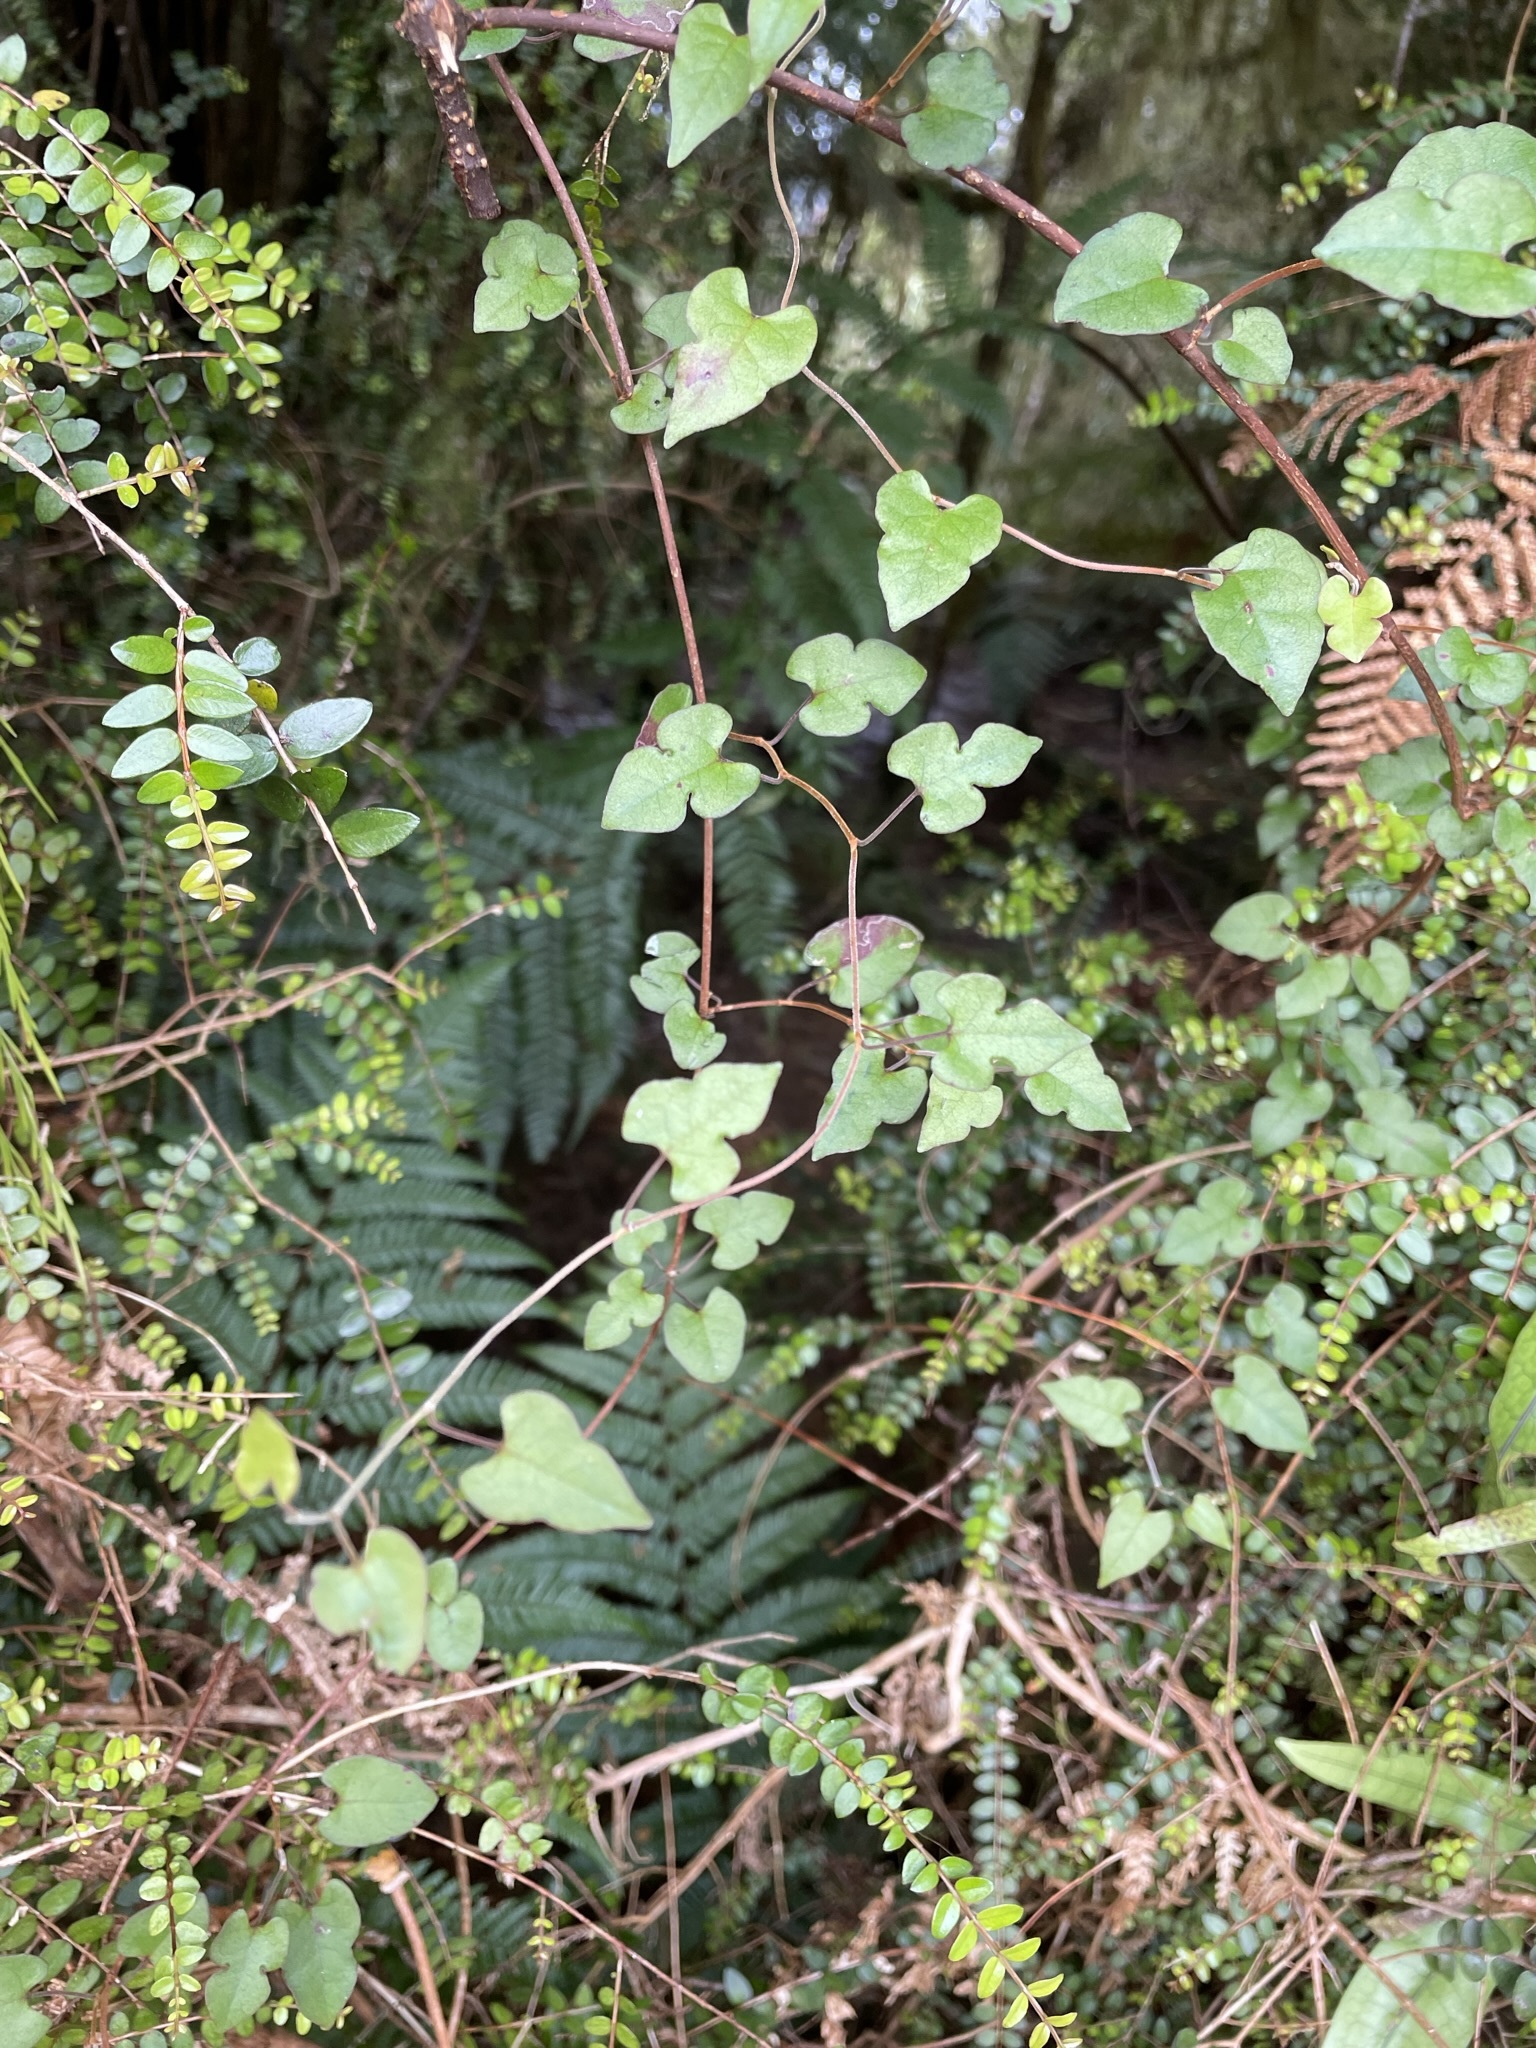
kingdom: Plantae
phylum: Tracheophyta
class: Magnoliopsida
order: Caryophyllales
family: Polygonaceae
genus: Muehlenbeckia
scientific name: Muehlenbeckia australis
